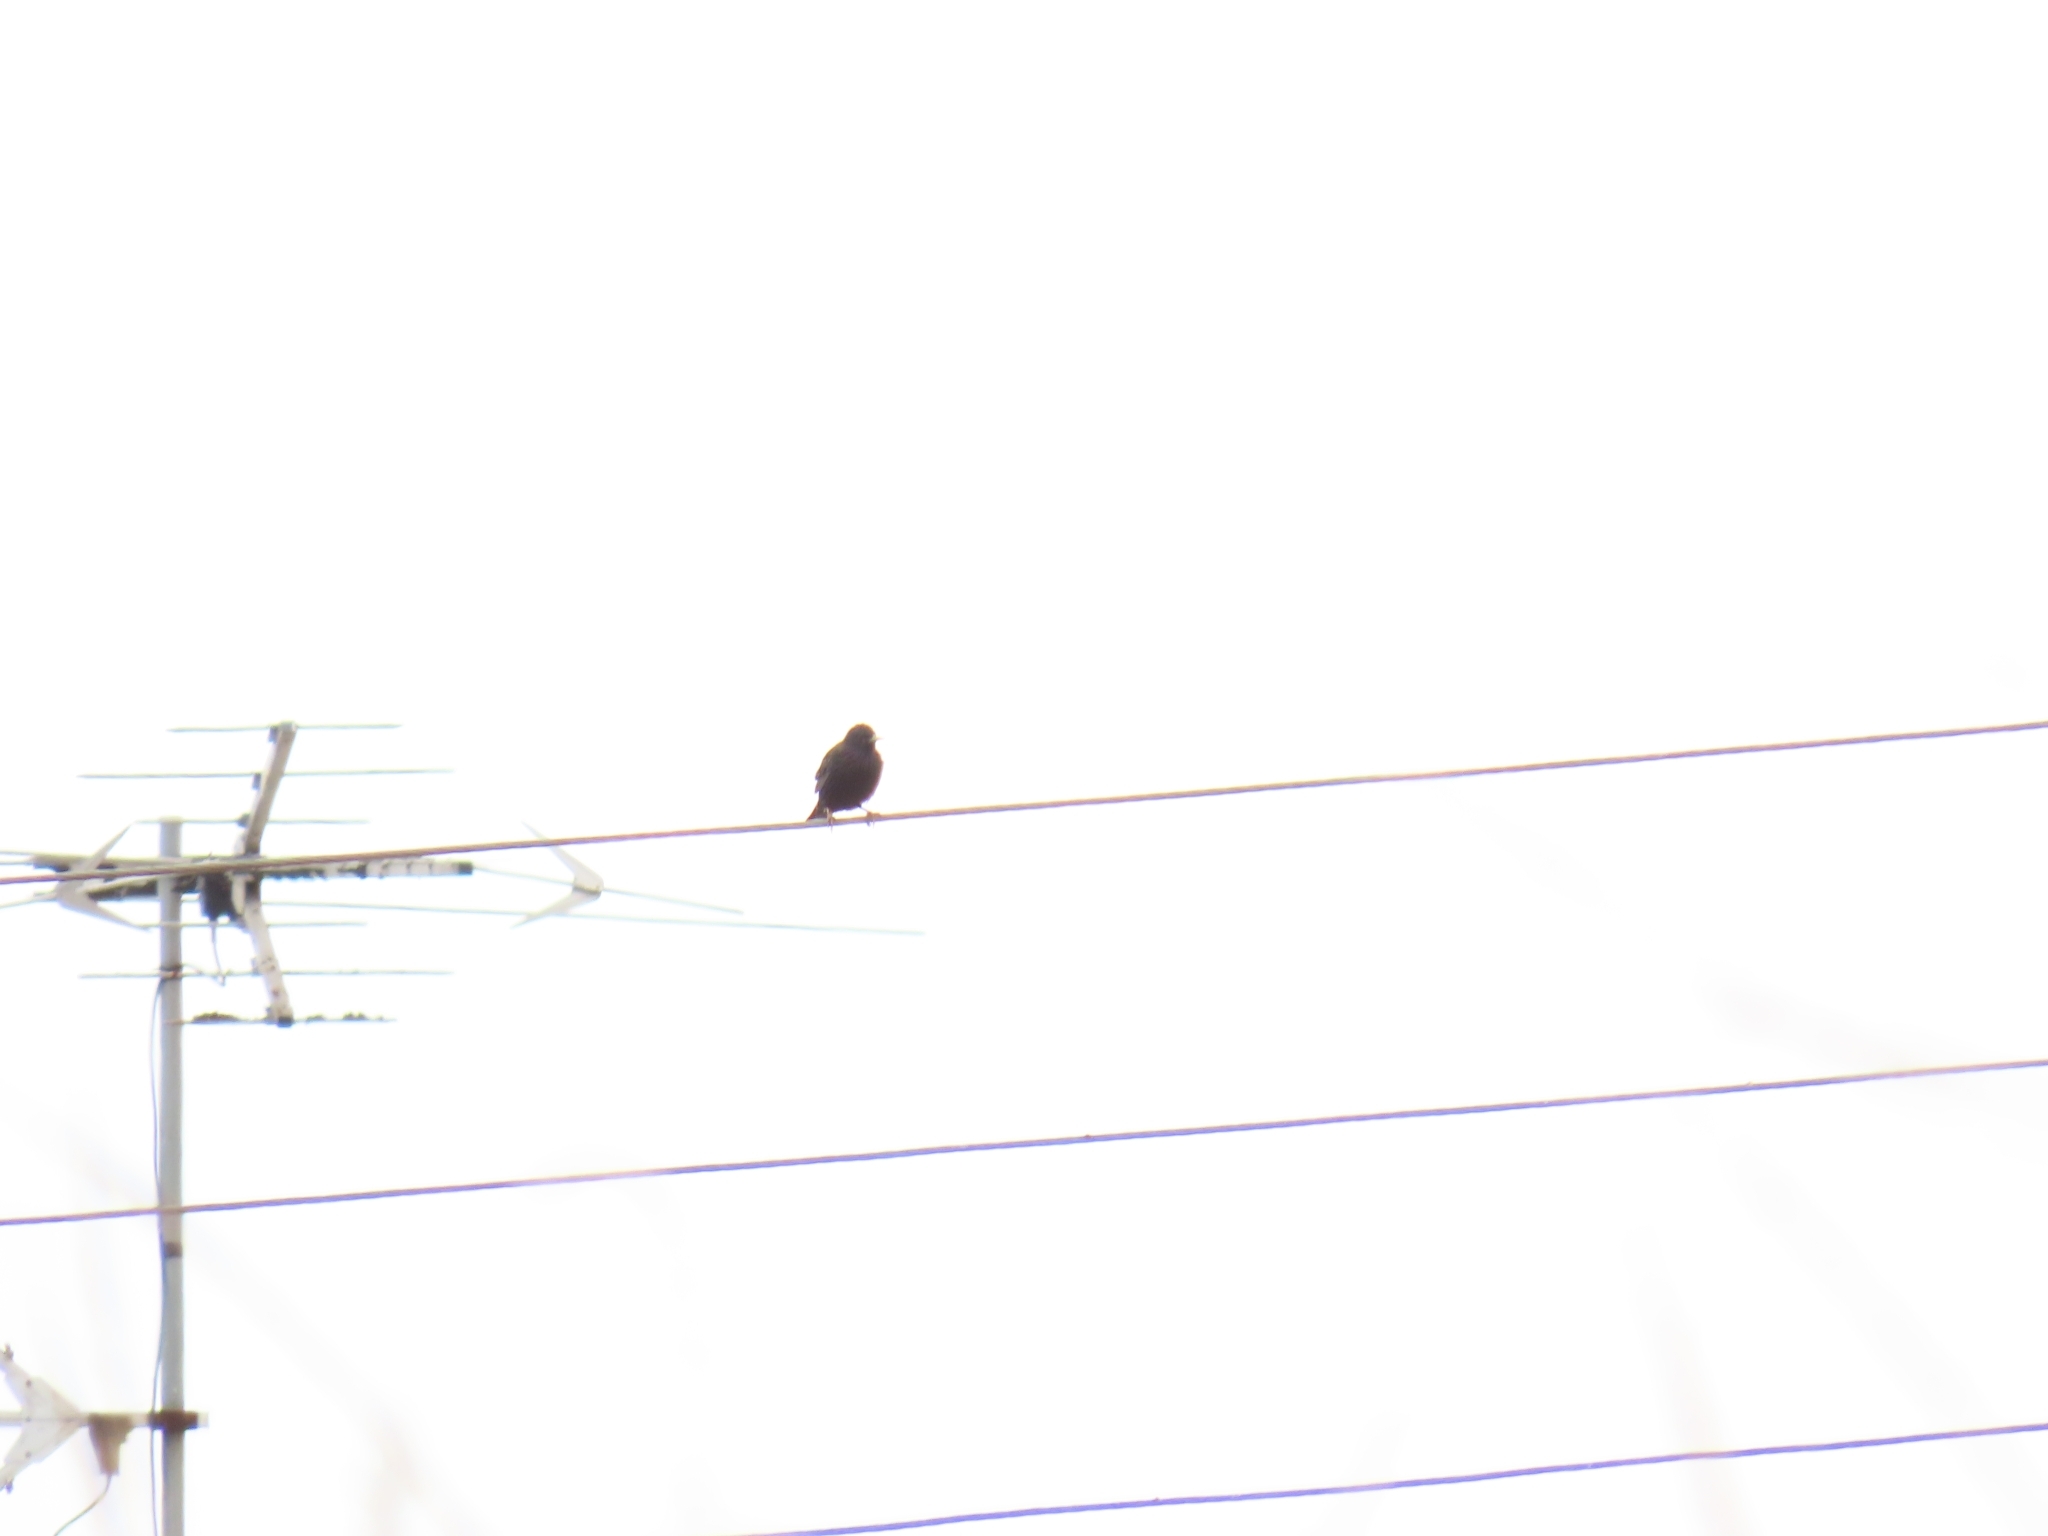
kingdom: Animalia
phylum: Chordata
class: Aves
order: Passeriformes
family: Sturnidae
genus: Sturnus
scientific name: Sturnus vulgaris
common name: Common starling
